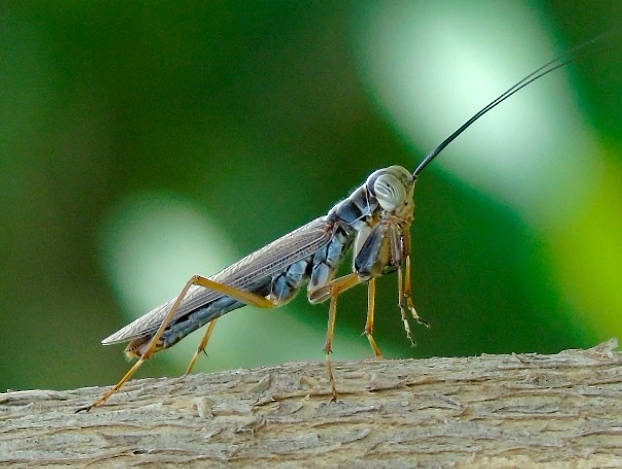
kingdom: Animalia
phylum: Arthropoda
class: Insecta
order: Mantodea
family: Mantoididae
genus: Mantoida
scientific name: Mantoida maya
